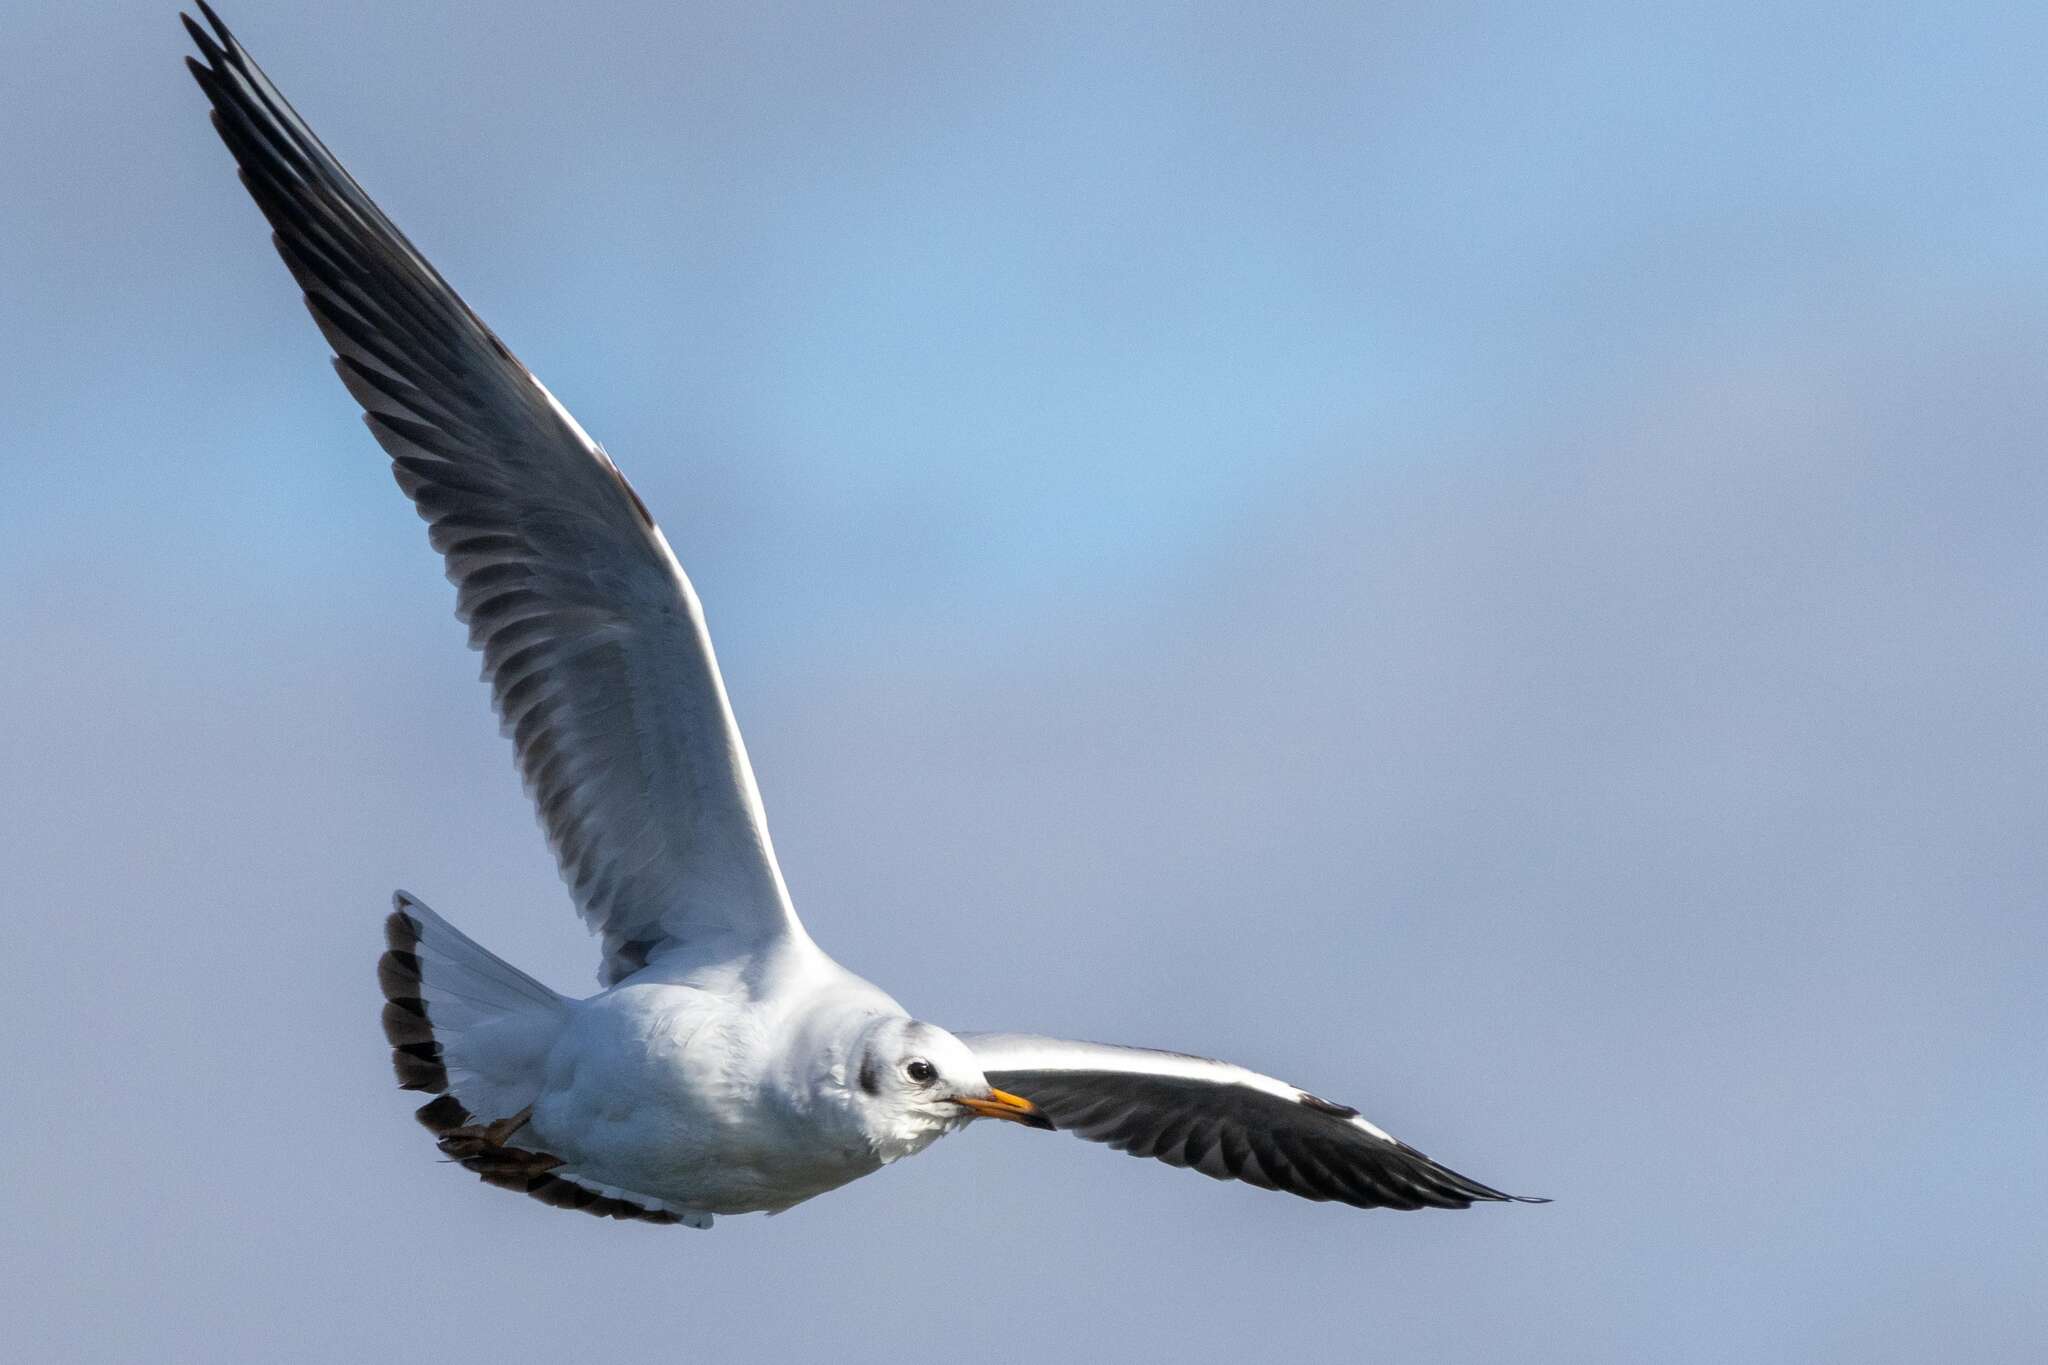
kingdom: Animalia
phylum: Chordata
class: Aves
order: Charadriiformes
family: Laridae
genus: Chroicocephalus
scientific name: Chroicocephalus ridibundus
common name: Black-headed gull
